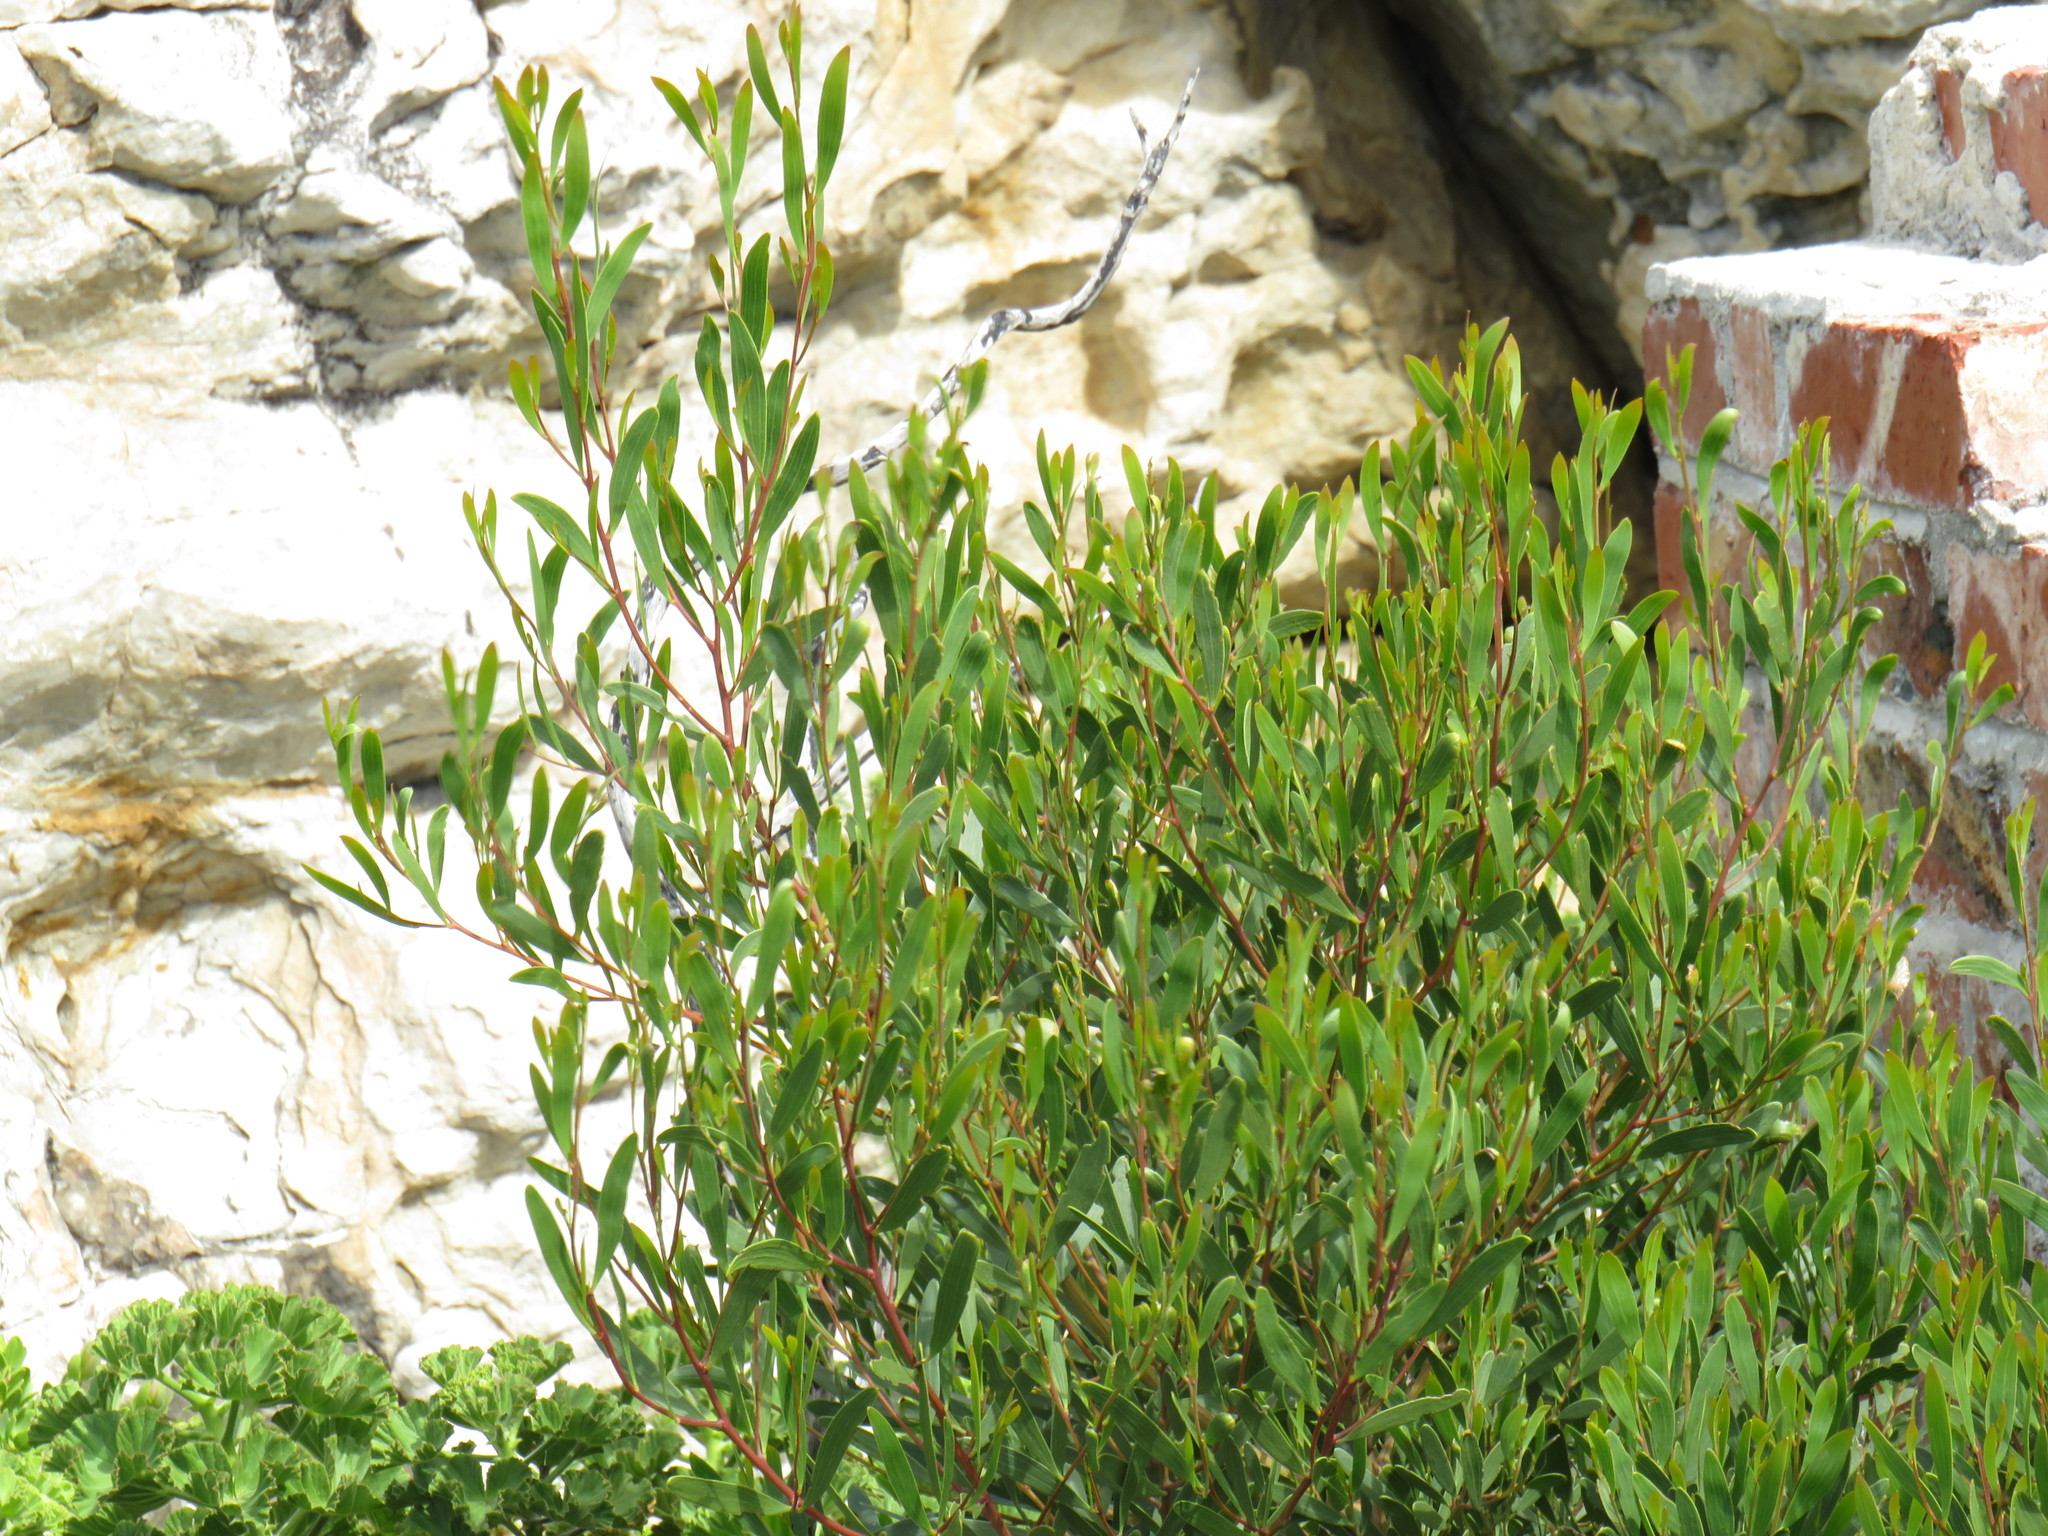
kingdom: Plantae
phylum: Tracheophyta
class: Magnoliopsida
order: Fabales
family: Fabaceae
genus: Acacia
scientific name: Acacia cyclops
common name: Coastal wattle
